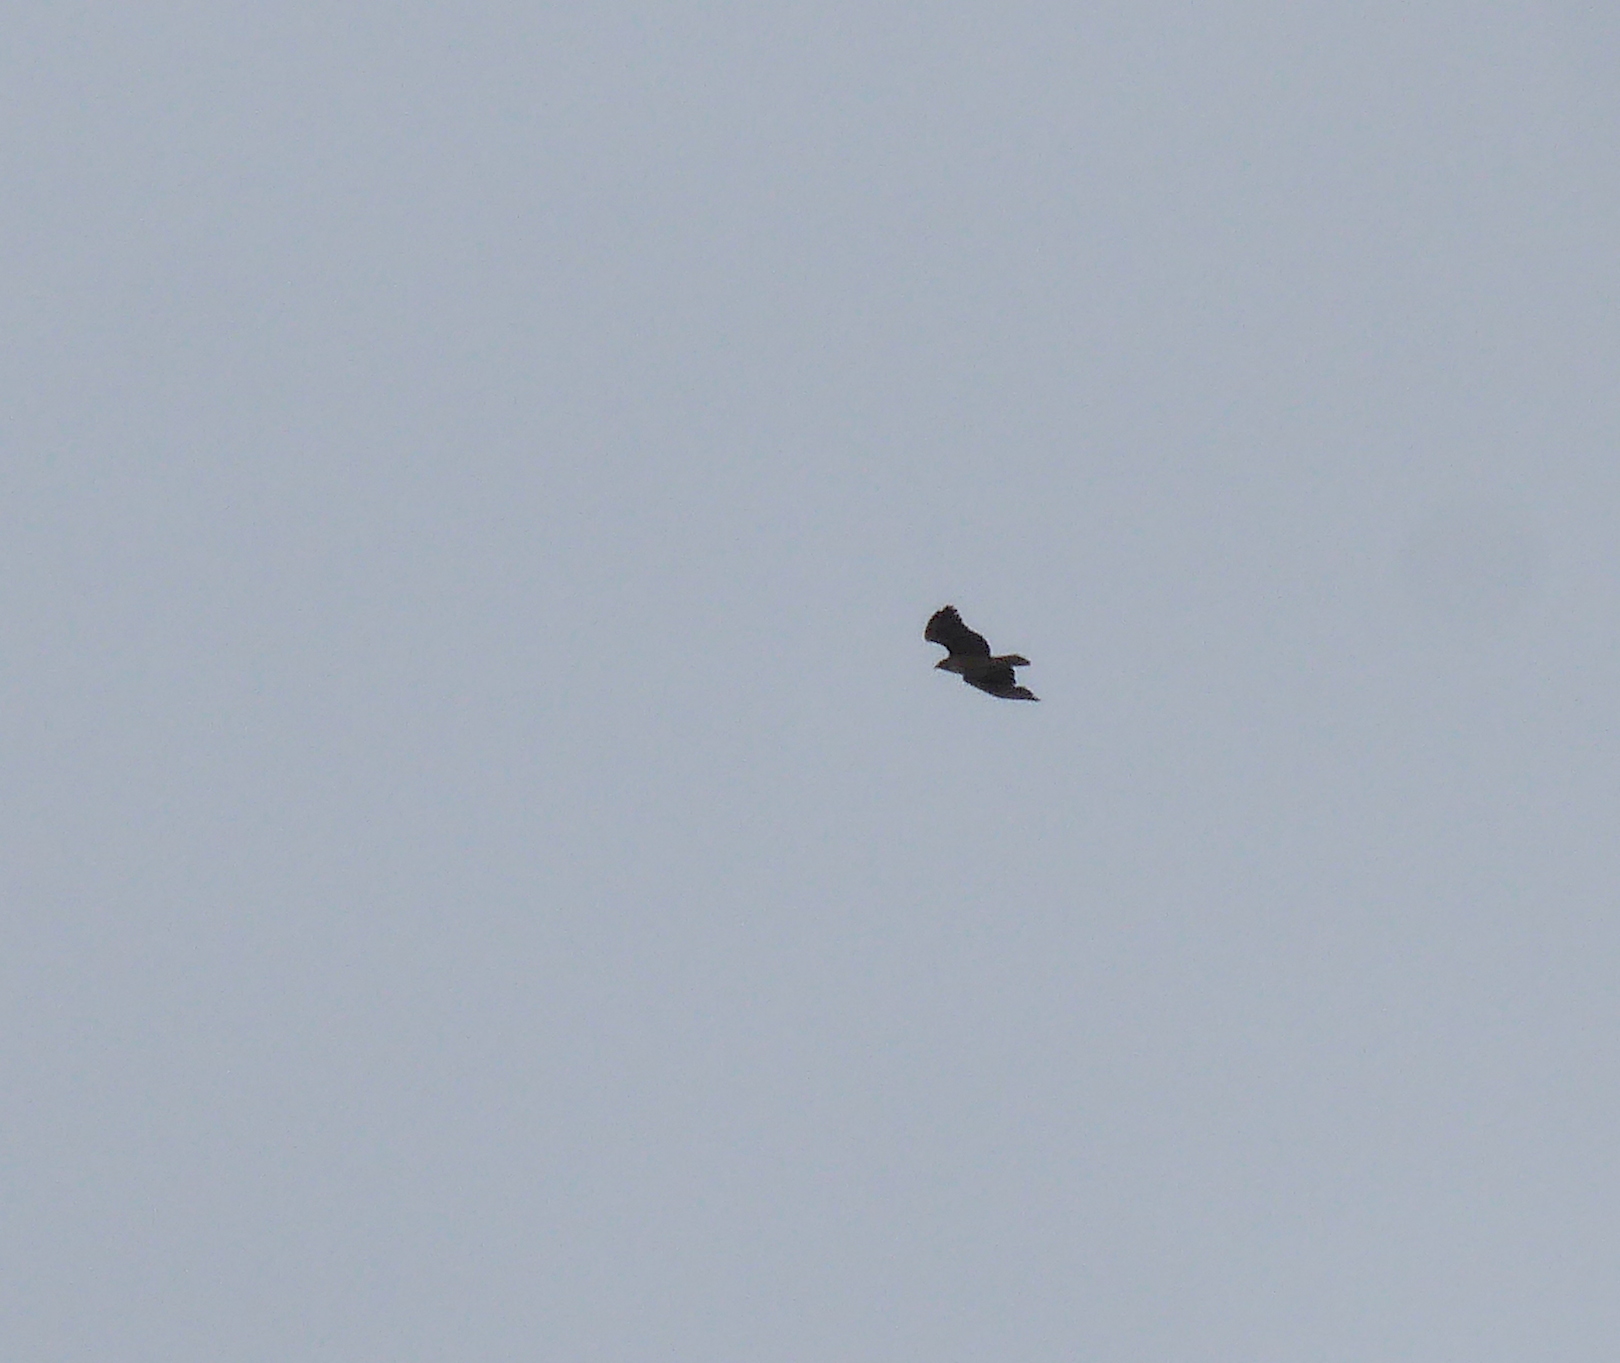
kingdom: Animalia
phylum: Chordata
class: Aves
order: Accipitriformes
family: Accipitridae
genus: Buteo
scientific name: Buteo jamaicensis
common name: Red-tailed hawk
